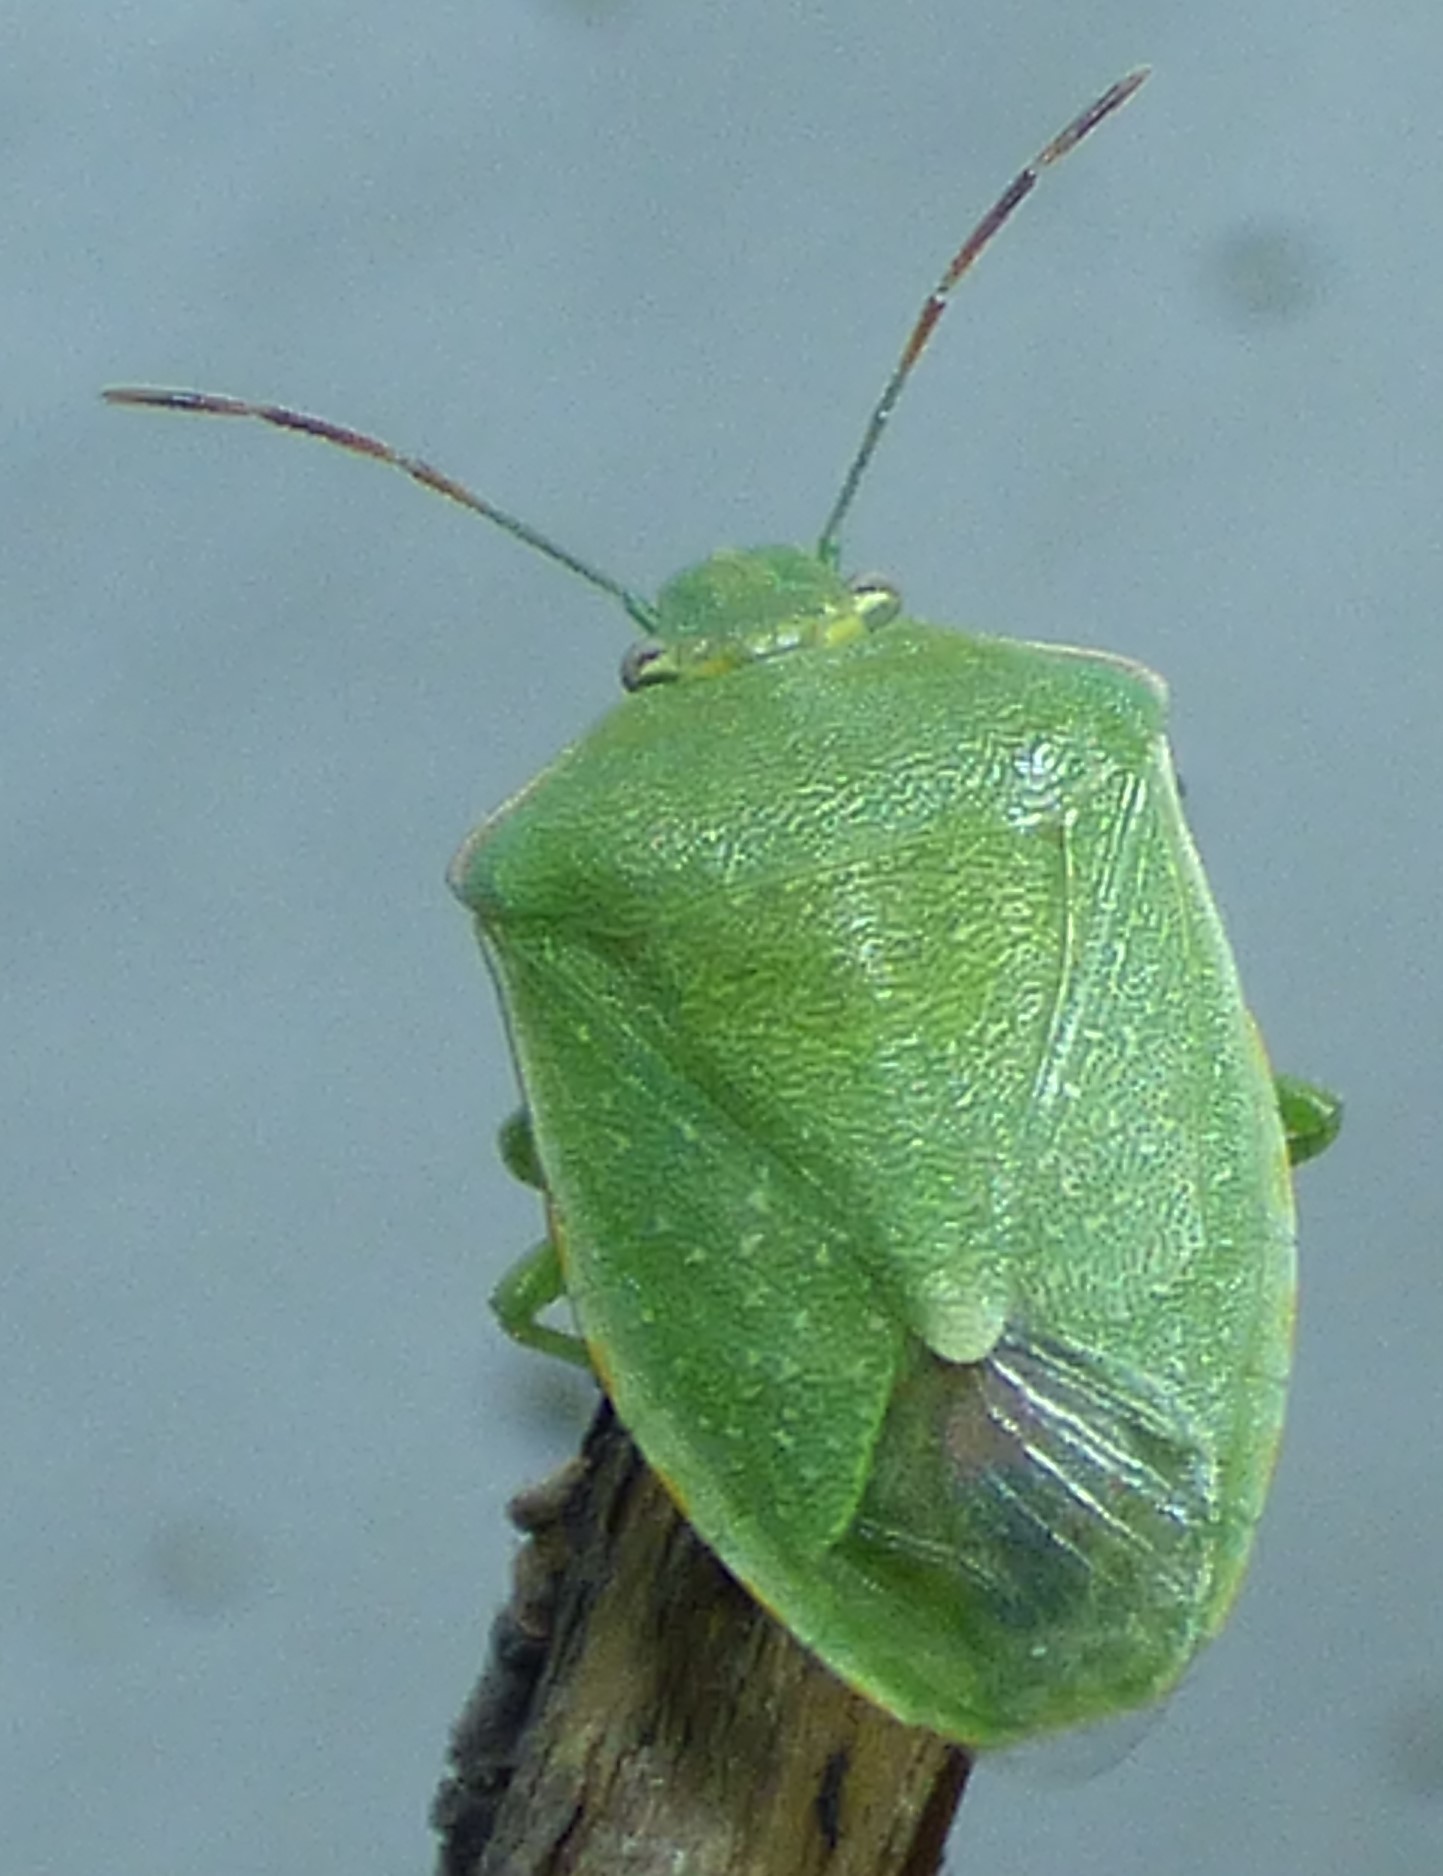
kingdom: Animalia
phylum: Arthropoda
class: Insecta
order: Hemiptera
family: Pentatomidae
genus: Thyanta
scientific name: Thyanta custator
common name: Stink bug
